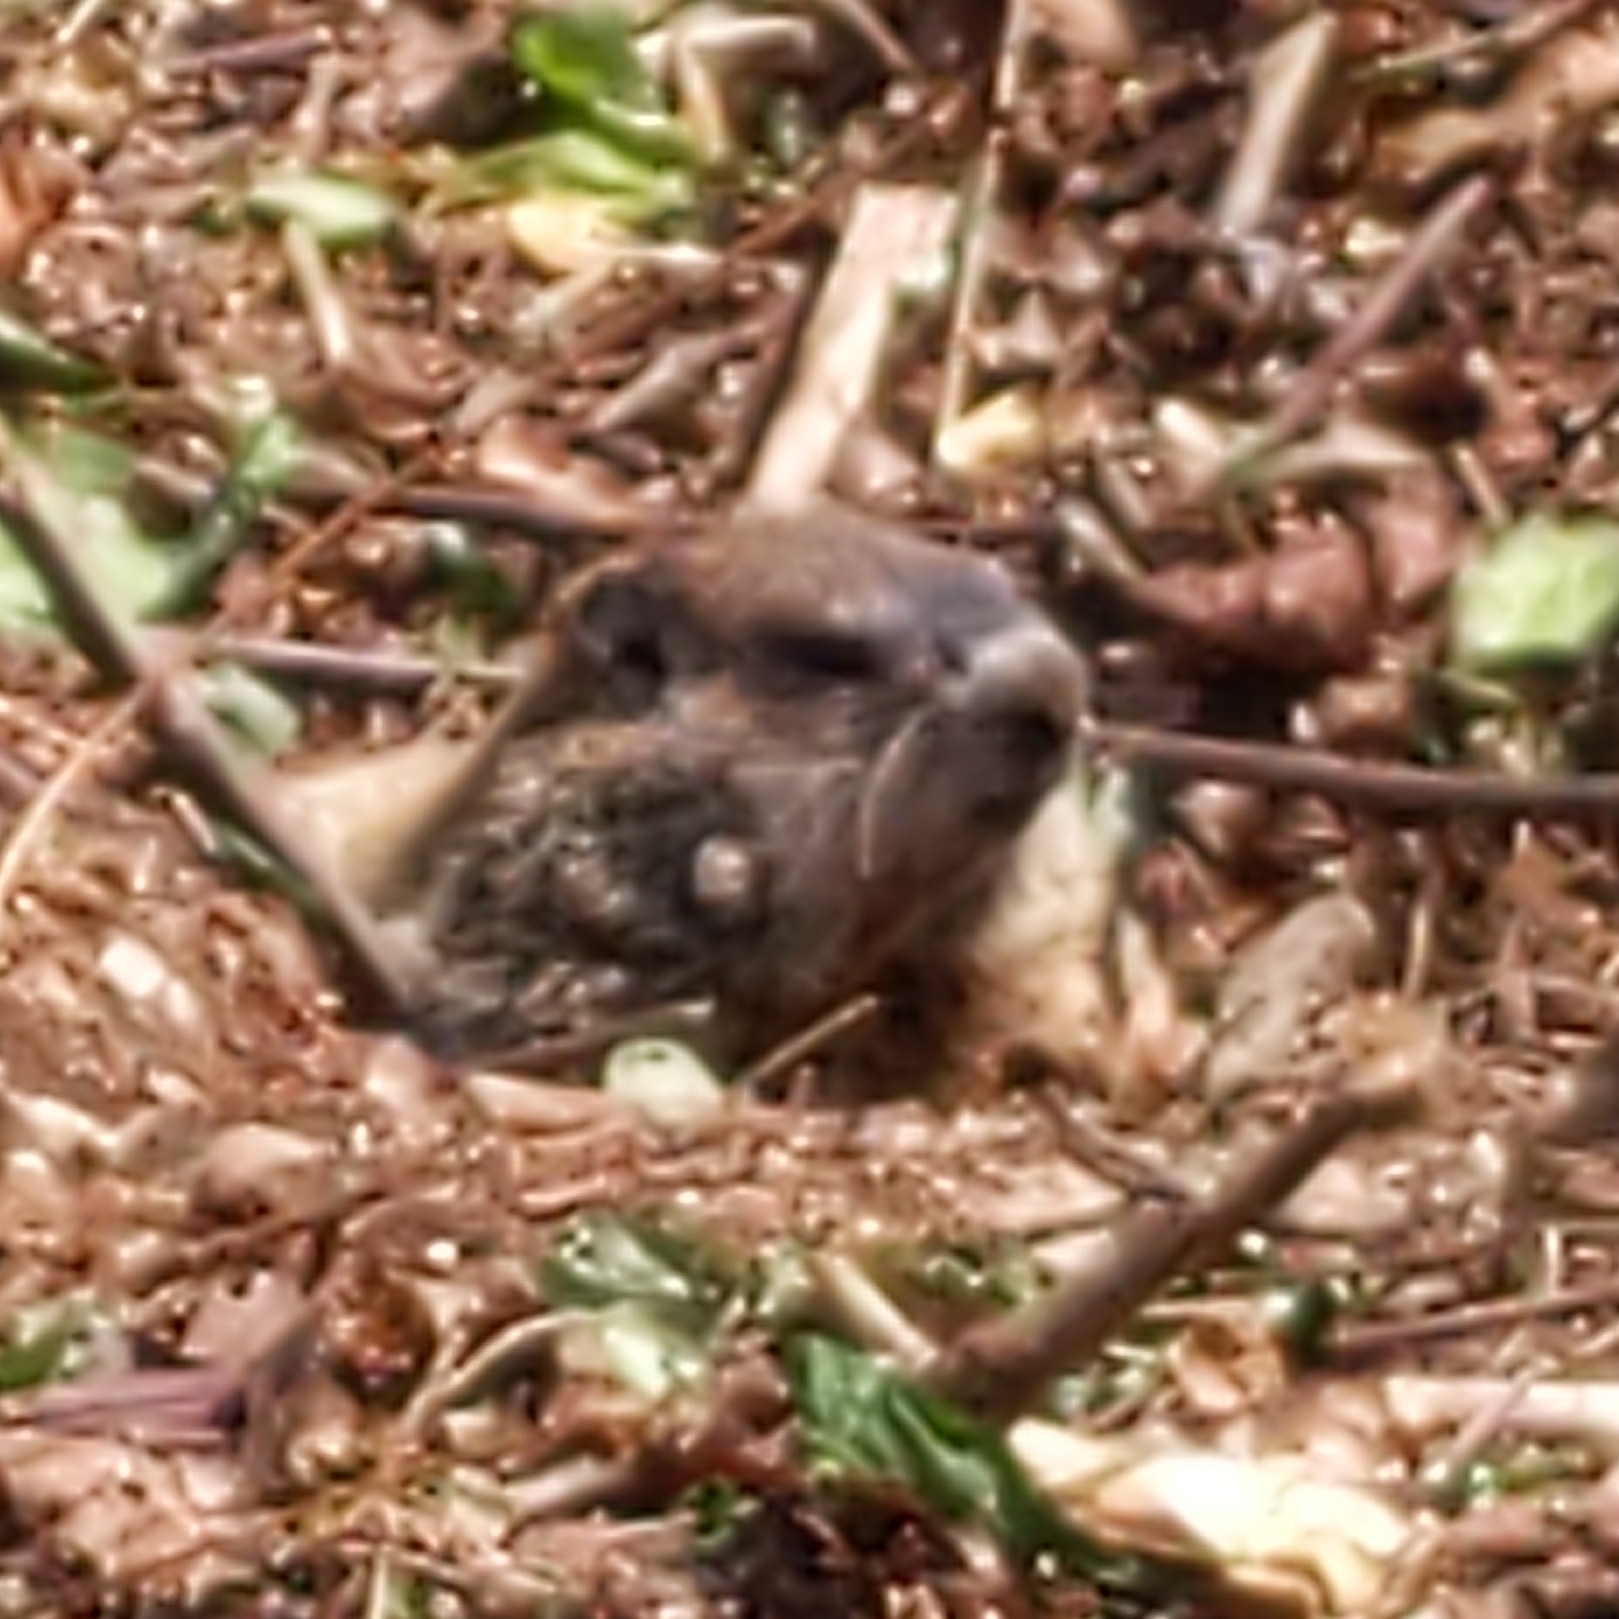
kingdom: Animalia
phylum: Chordata
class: Mammalia
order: Rodentia
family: Sciuridae
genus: Marmota
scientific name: Marmota monax
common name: Groundhog
